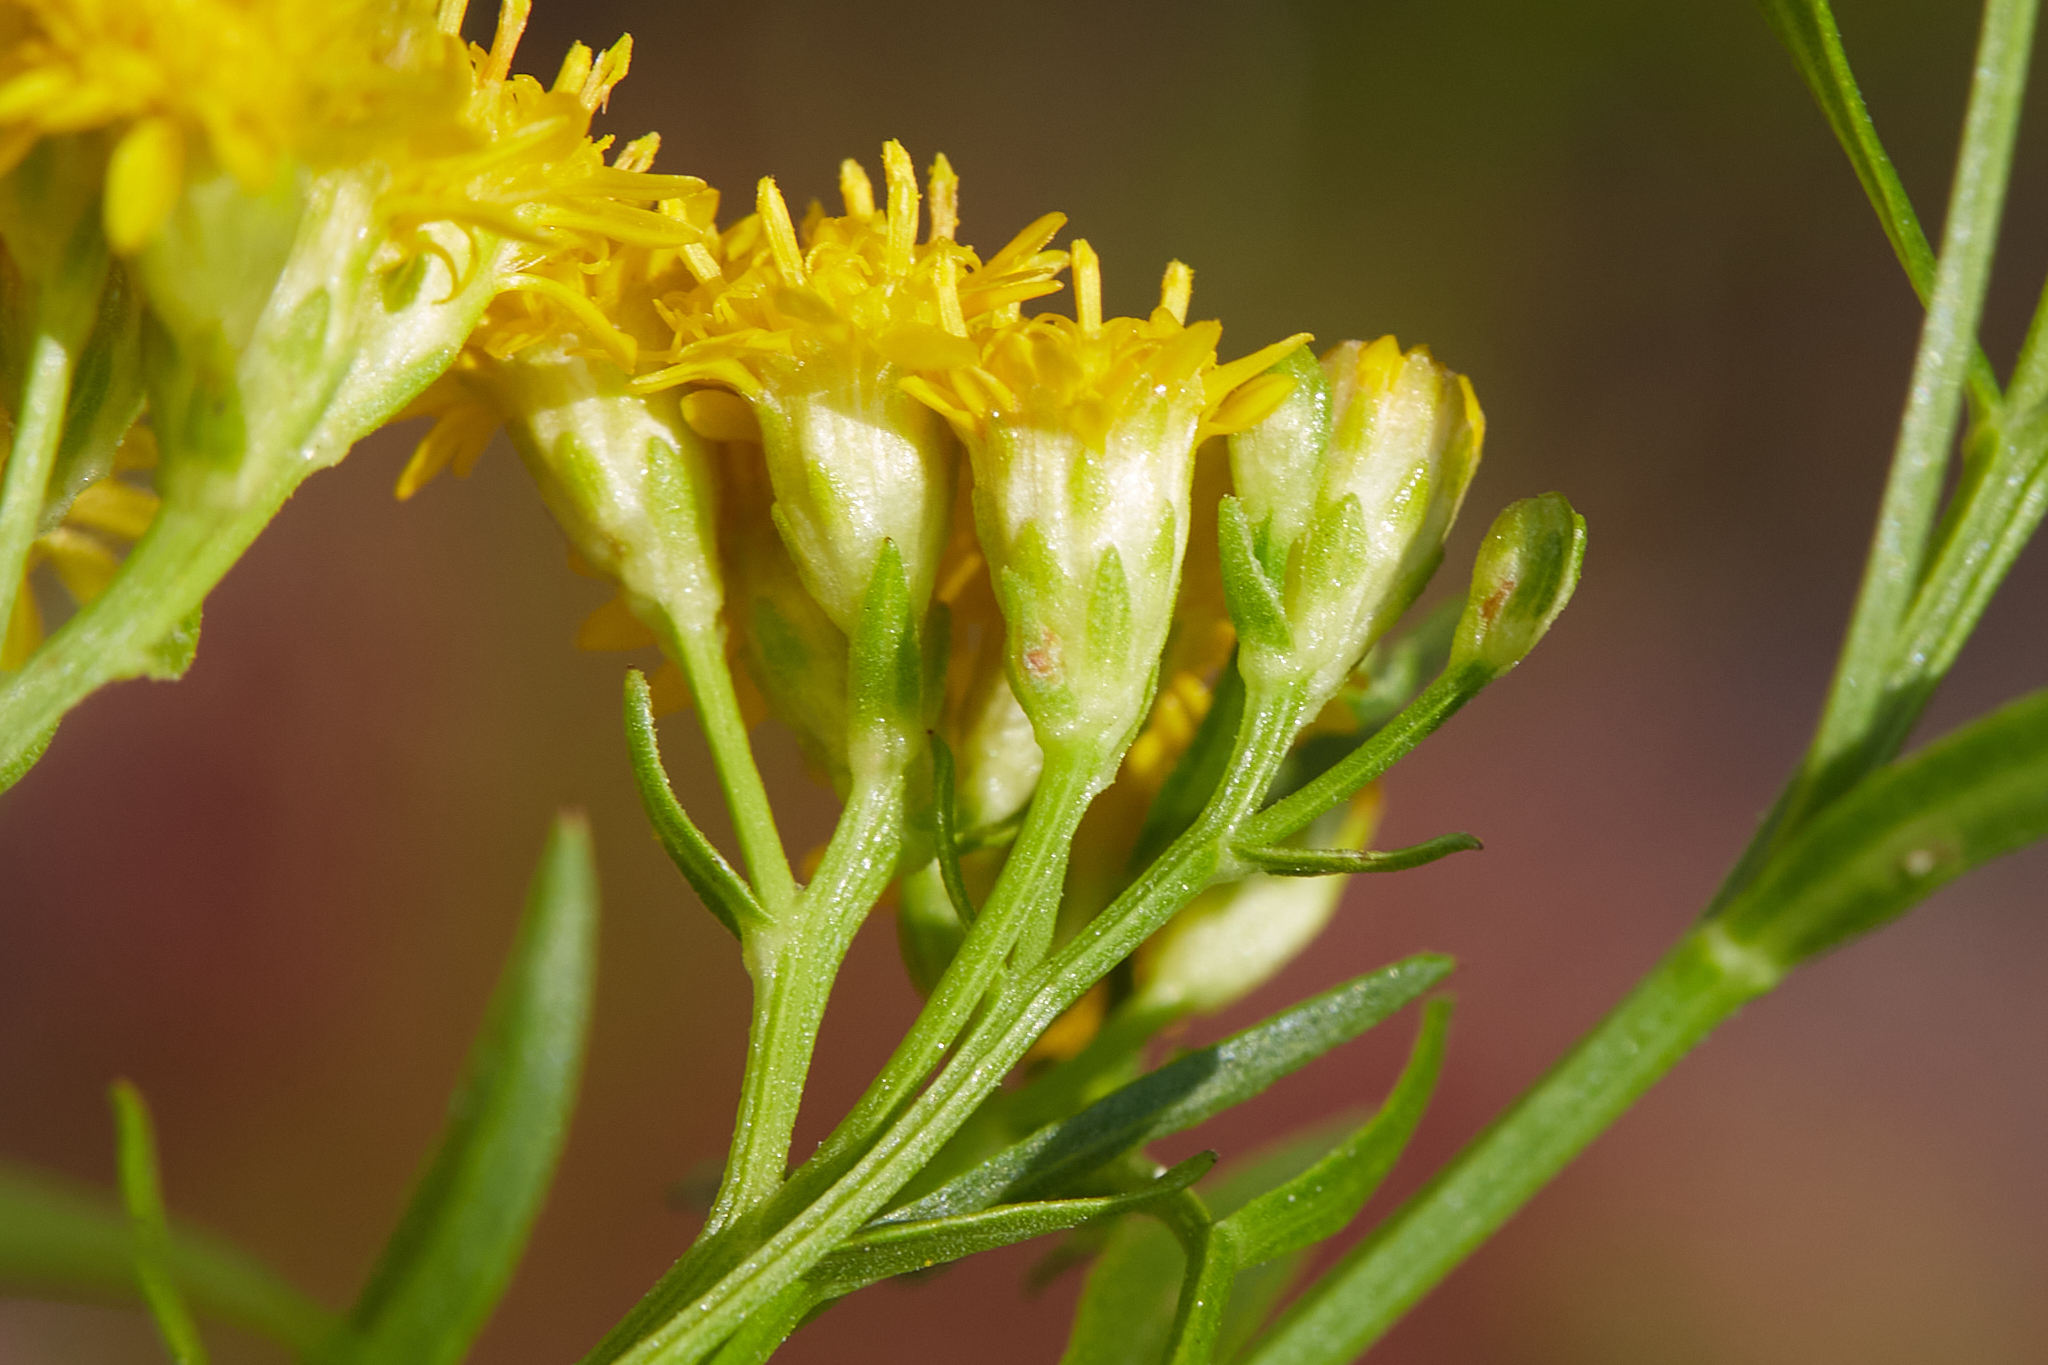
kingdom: Plantae
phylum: Tracheophyta
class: Magnoliopsida
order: Asterales
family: Asteraceae
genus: Euthamia
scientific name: Euthamia caroliniana
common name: Coastal plain goldentop
